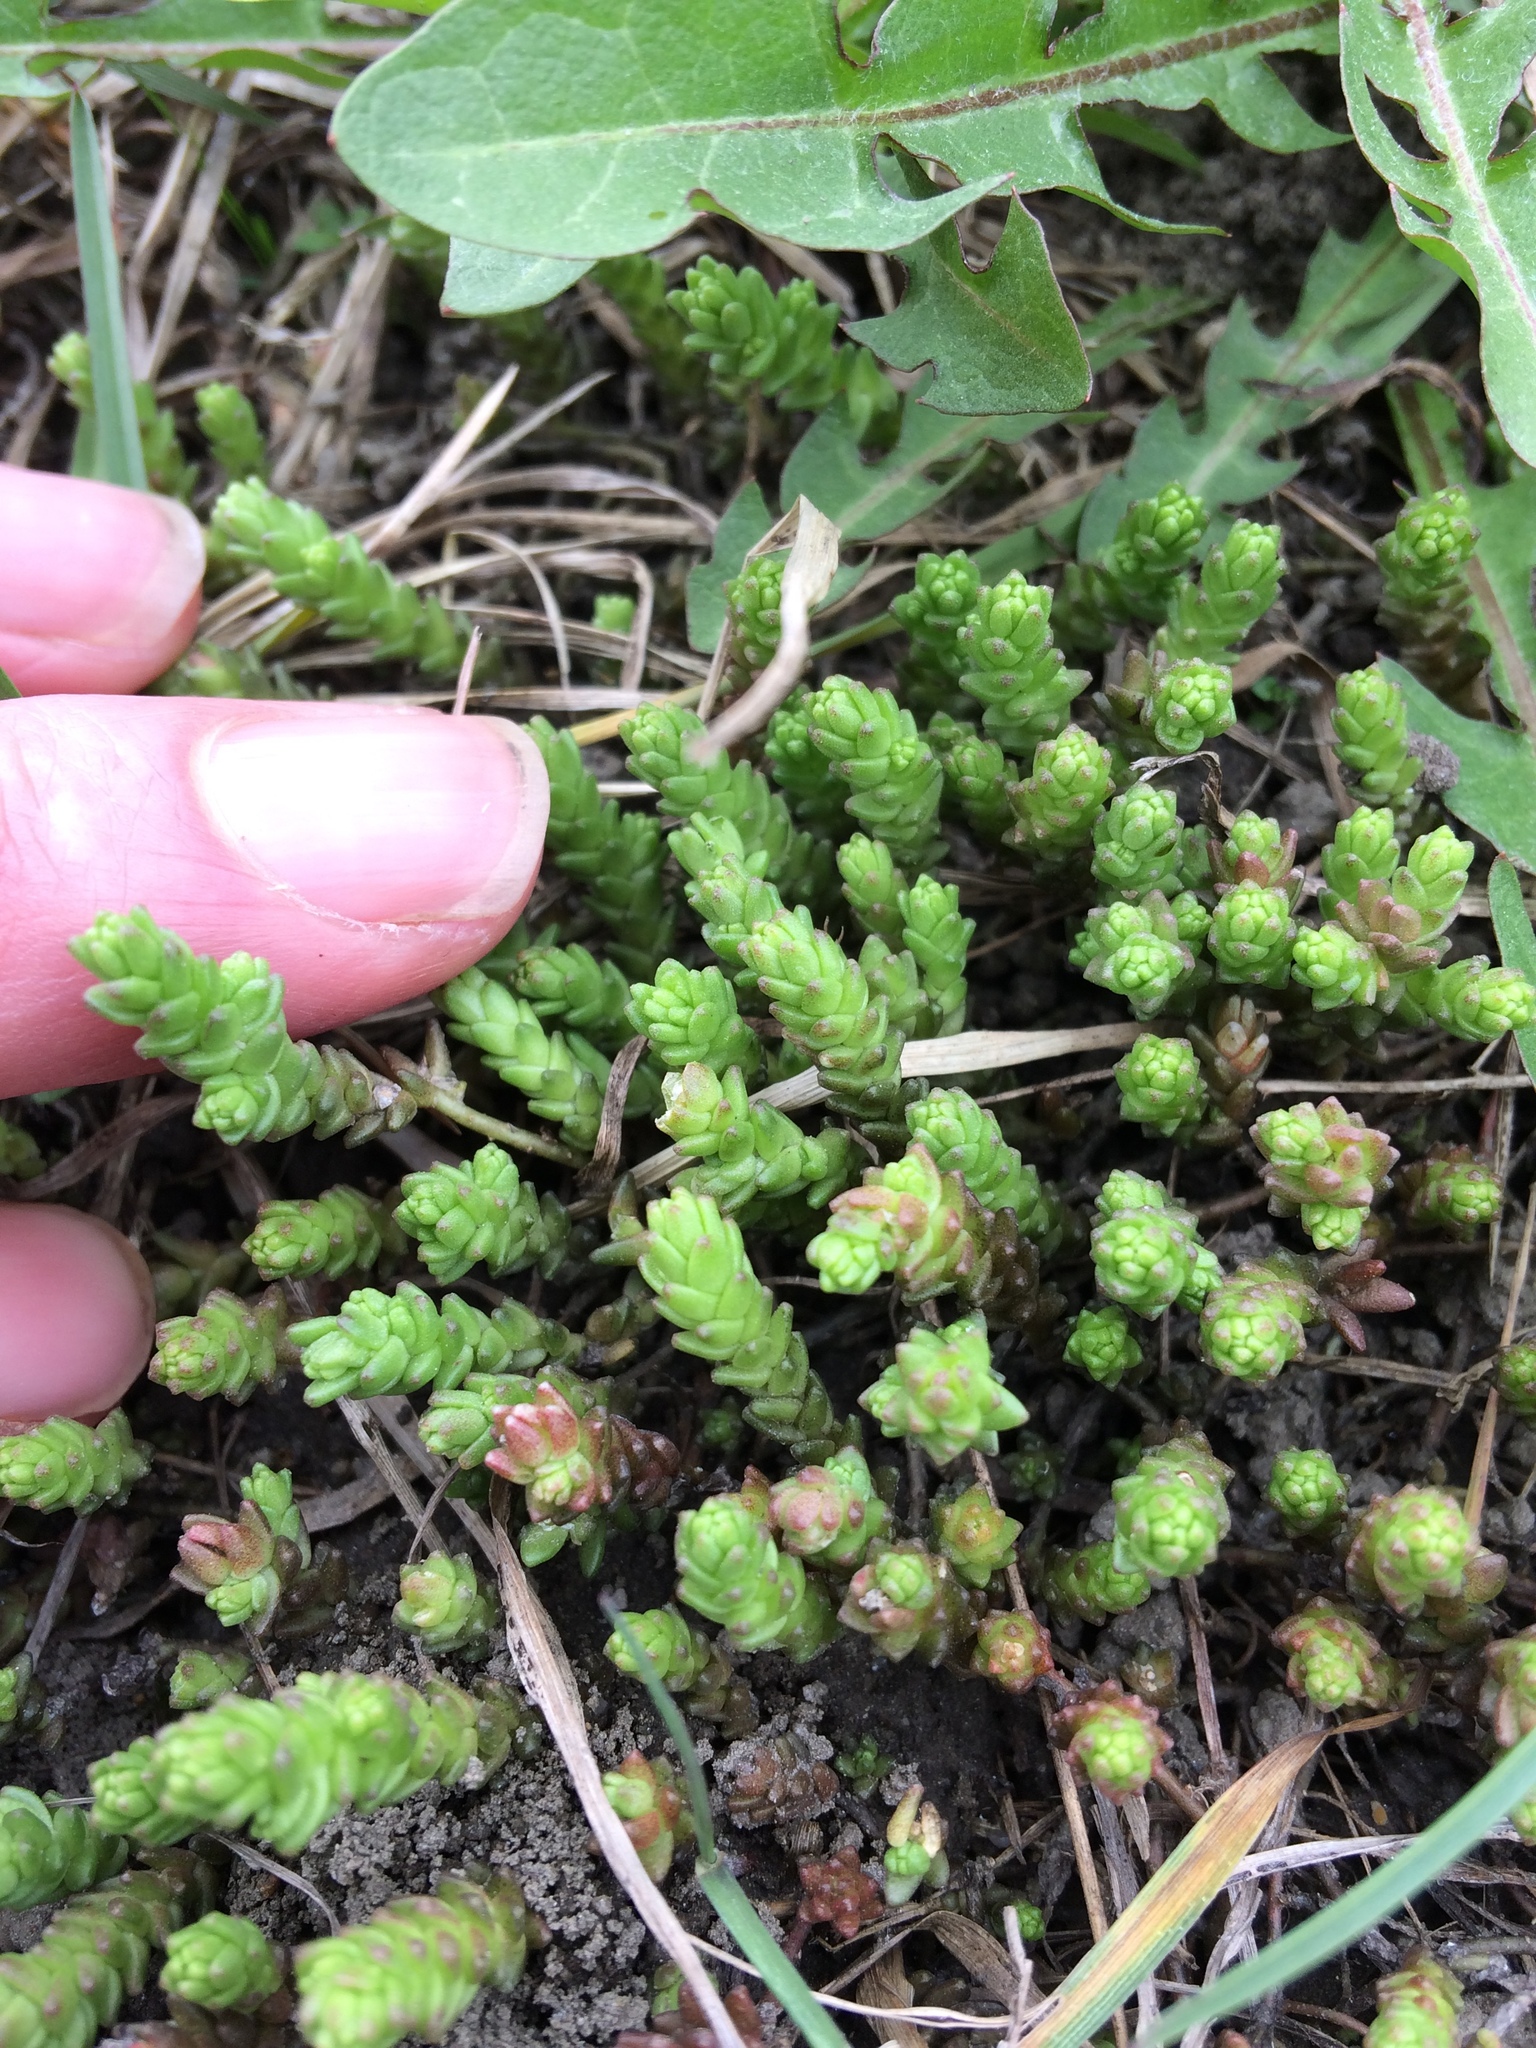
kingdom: Plantae
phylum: Tracheophyta
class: Magnoliopsida
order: Saxifragales
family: Crassulaceae
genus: Sedum
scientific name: Sedum acre
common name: Biting stonecrop
